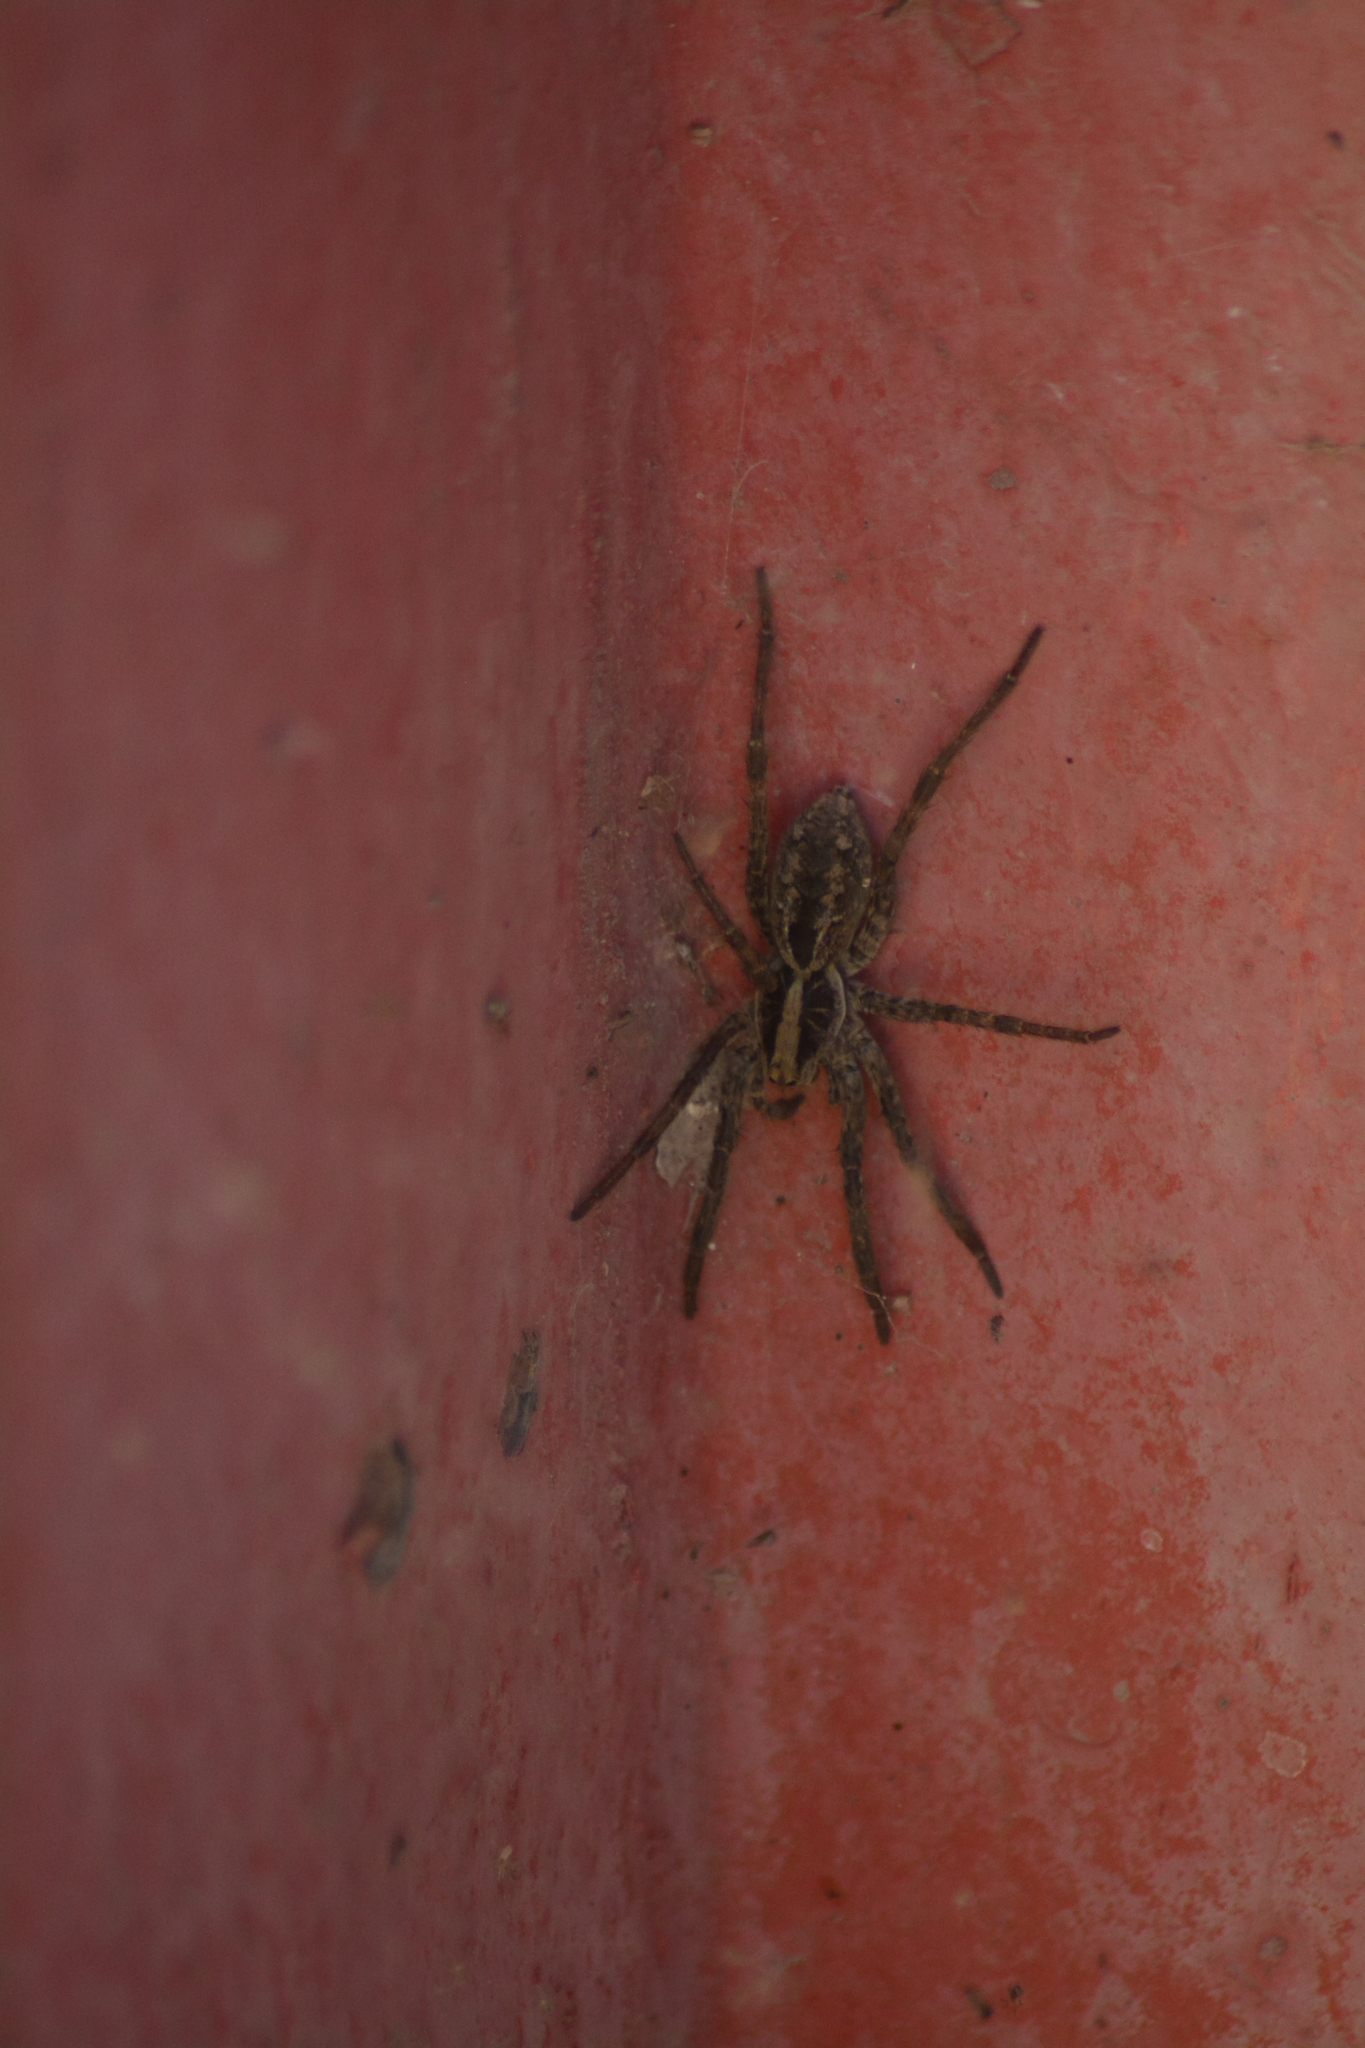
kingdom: Animalia
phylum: Arthropoda
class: Arachnida
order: Araneae
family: Lycosidae
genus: Schizocosa
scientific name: Schizocosa malitiosa
